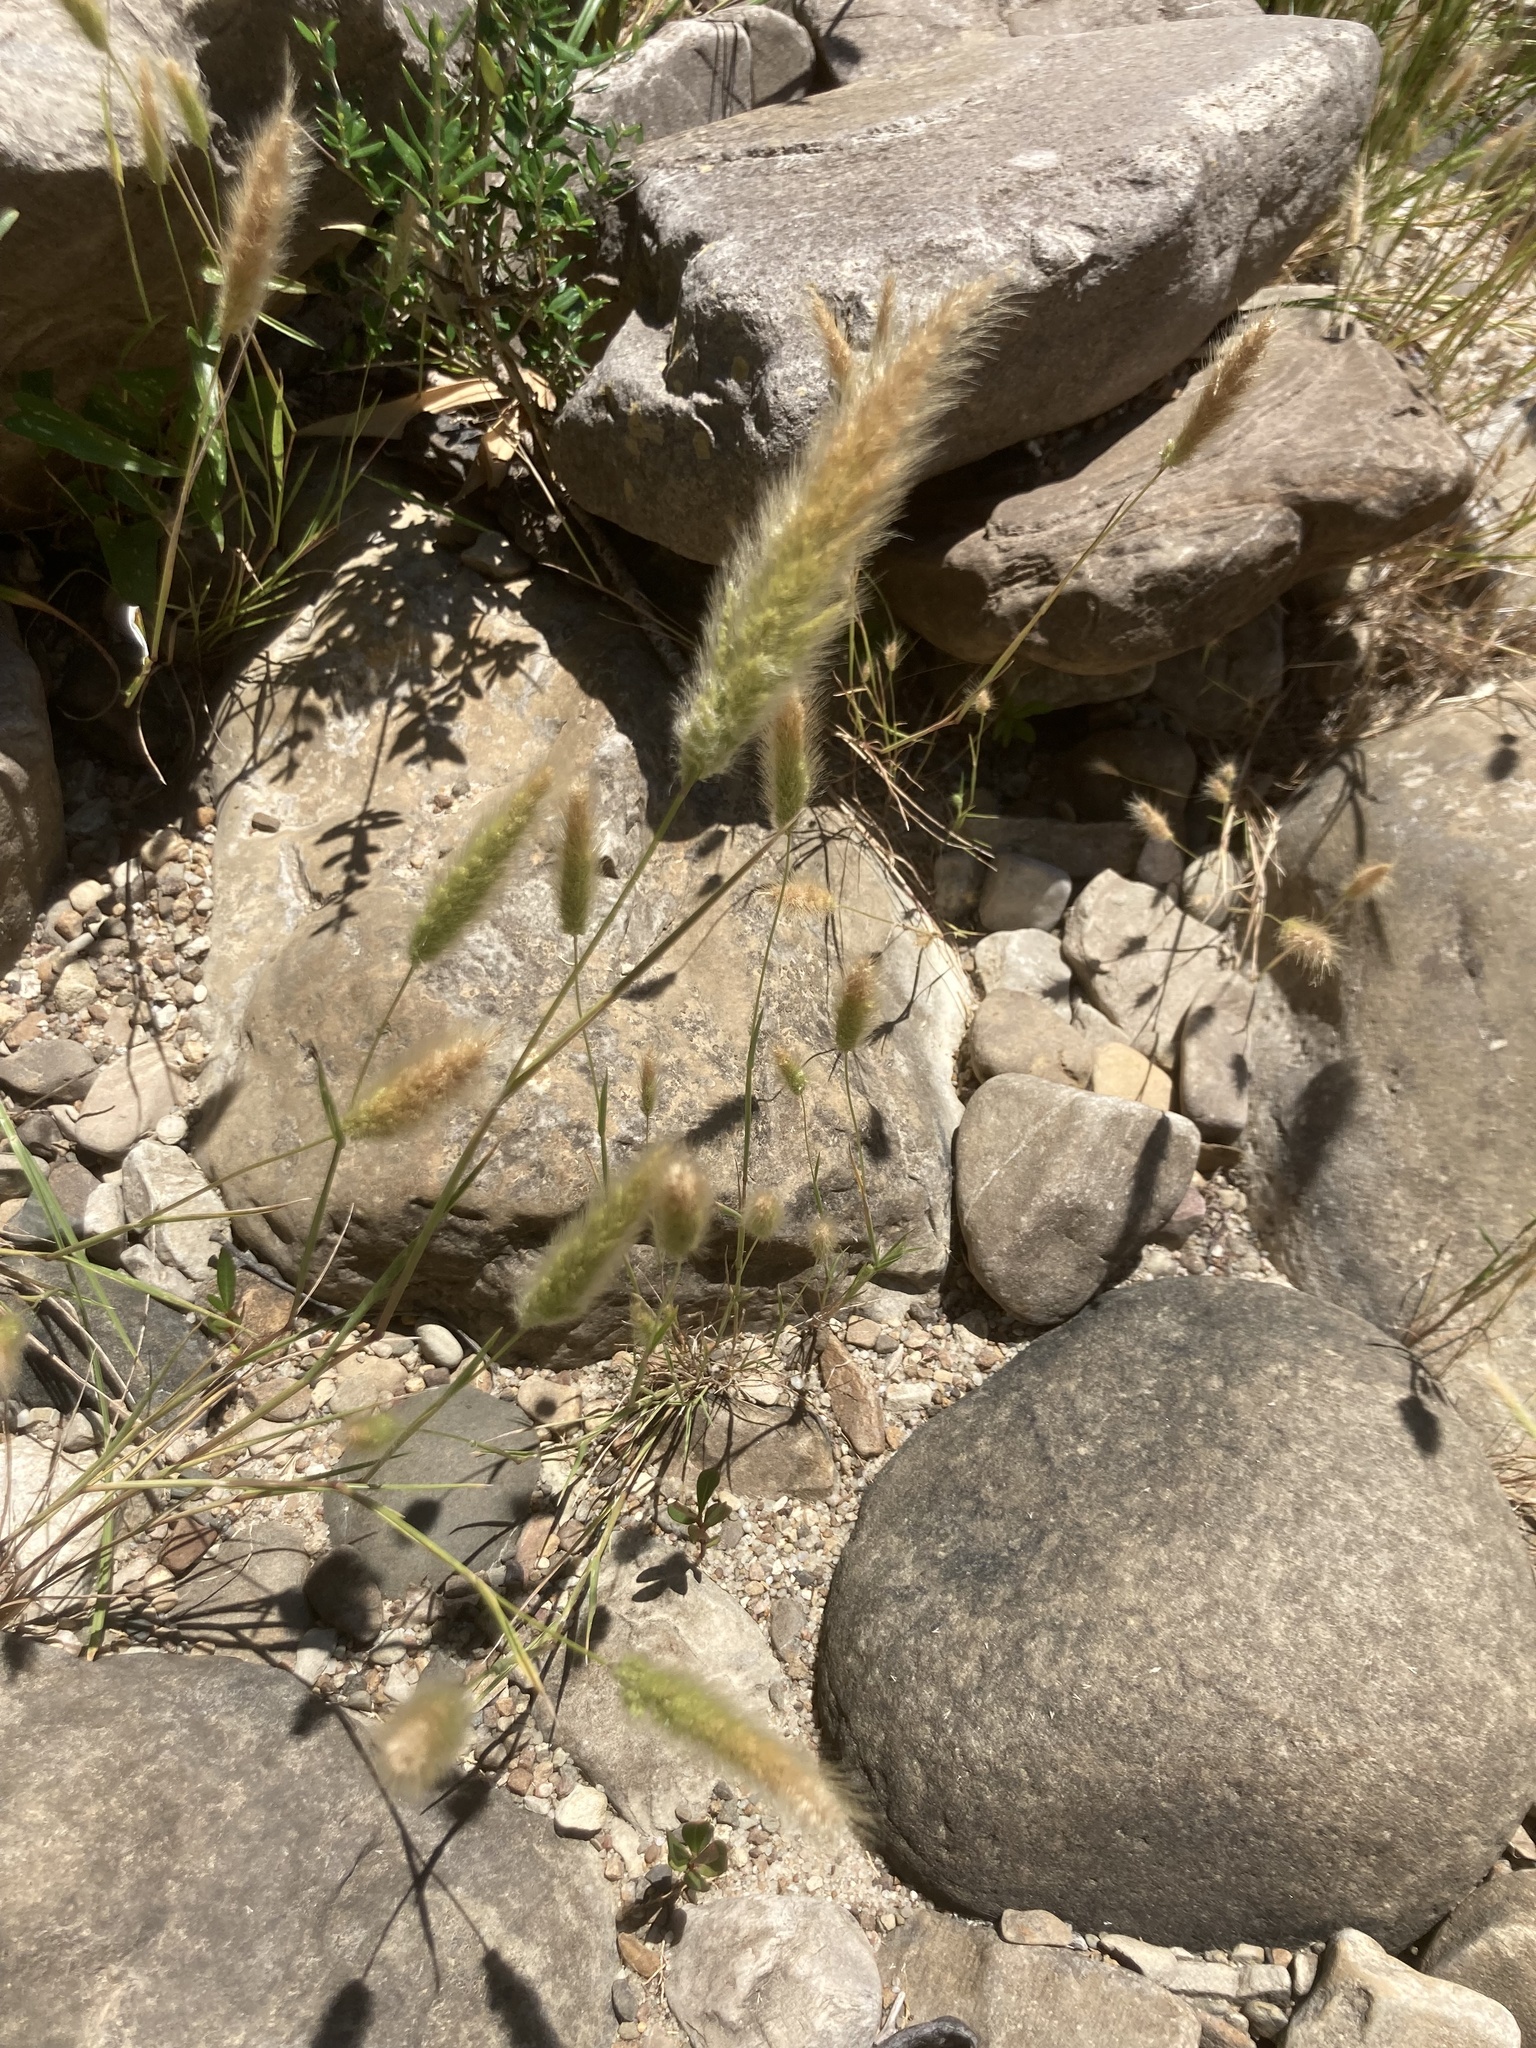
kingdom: Plantae
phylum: Tracheophyta
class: Liliopsida
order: Poales
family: Poaceae
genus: Polypogon
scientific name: Polypogon monspeliensis
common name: Annual rabbitsfoot grass
